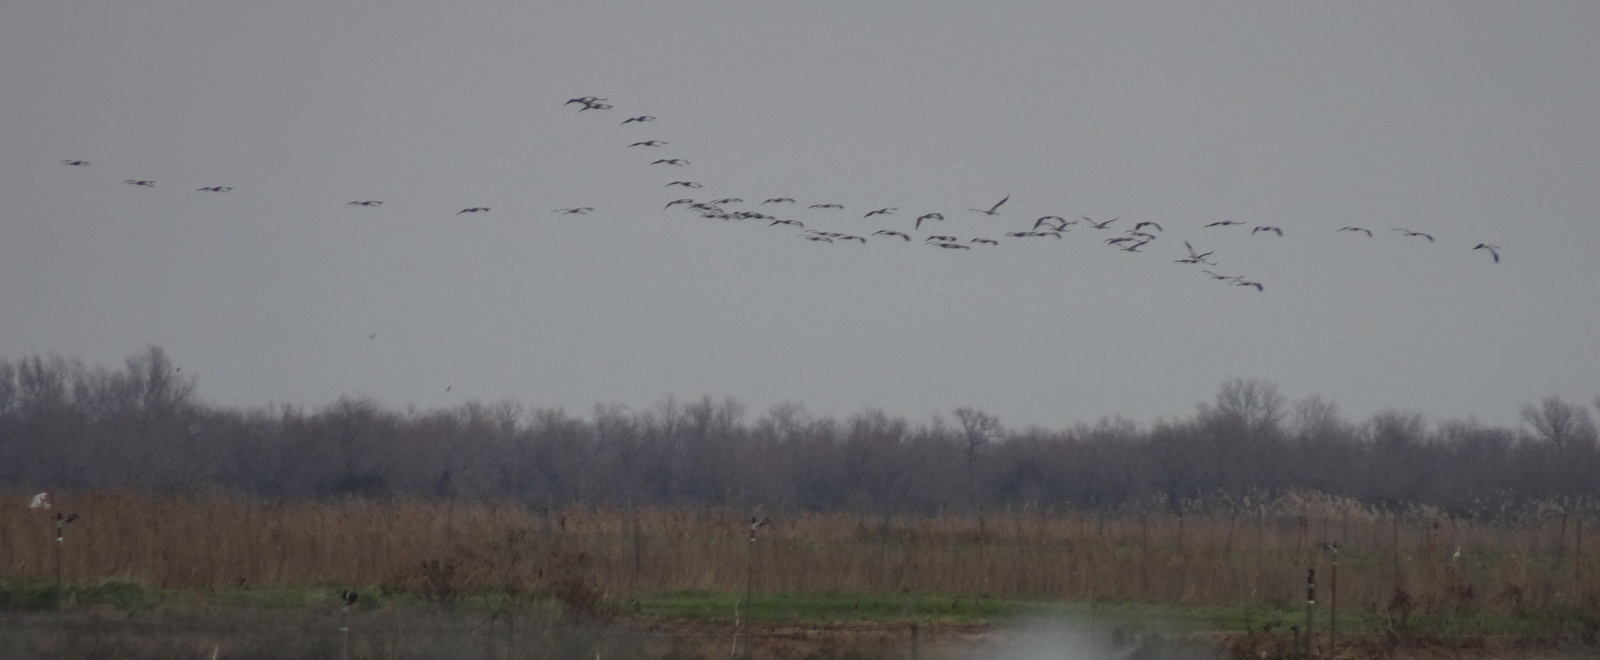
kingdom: Animalia
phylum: Chordata
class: Aves
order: Gruiformes
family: Gruidae
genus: Grus
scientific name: Grus grus
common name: Common crane
